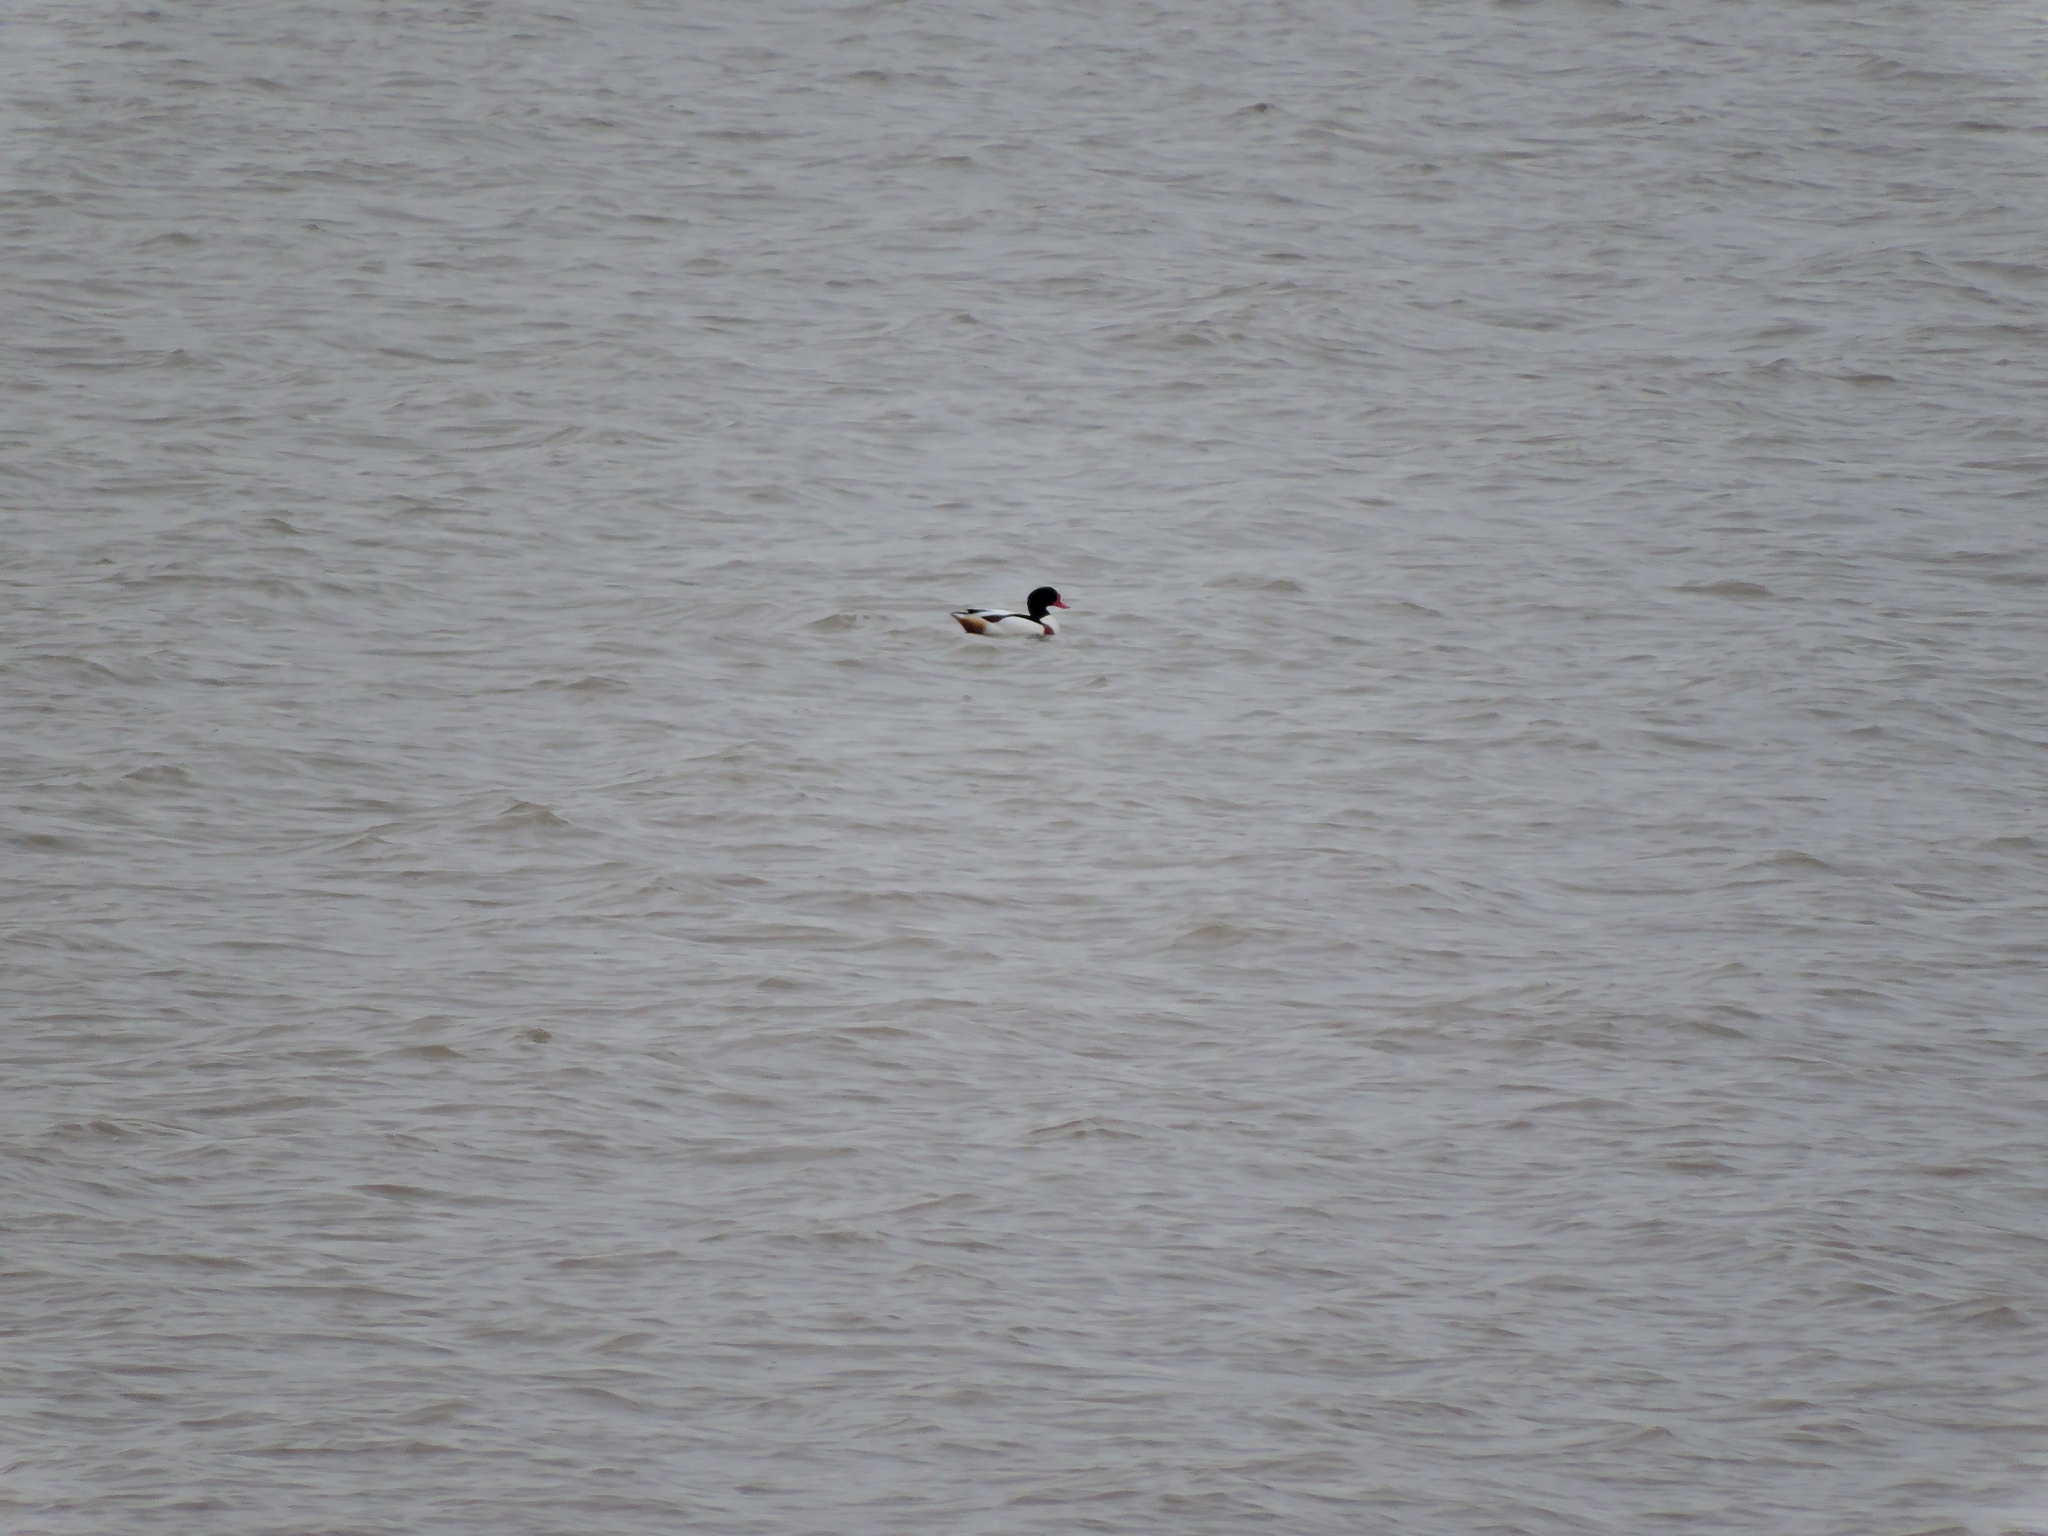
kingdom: Animalia
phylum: Chordata
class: Aves
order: Anseriformes
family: Anatidae
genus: Tadorna
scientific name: Tadorna tadorna
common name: Common shelduck
